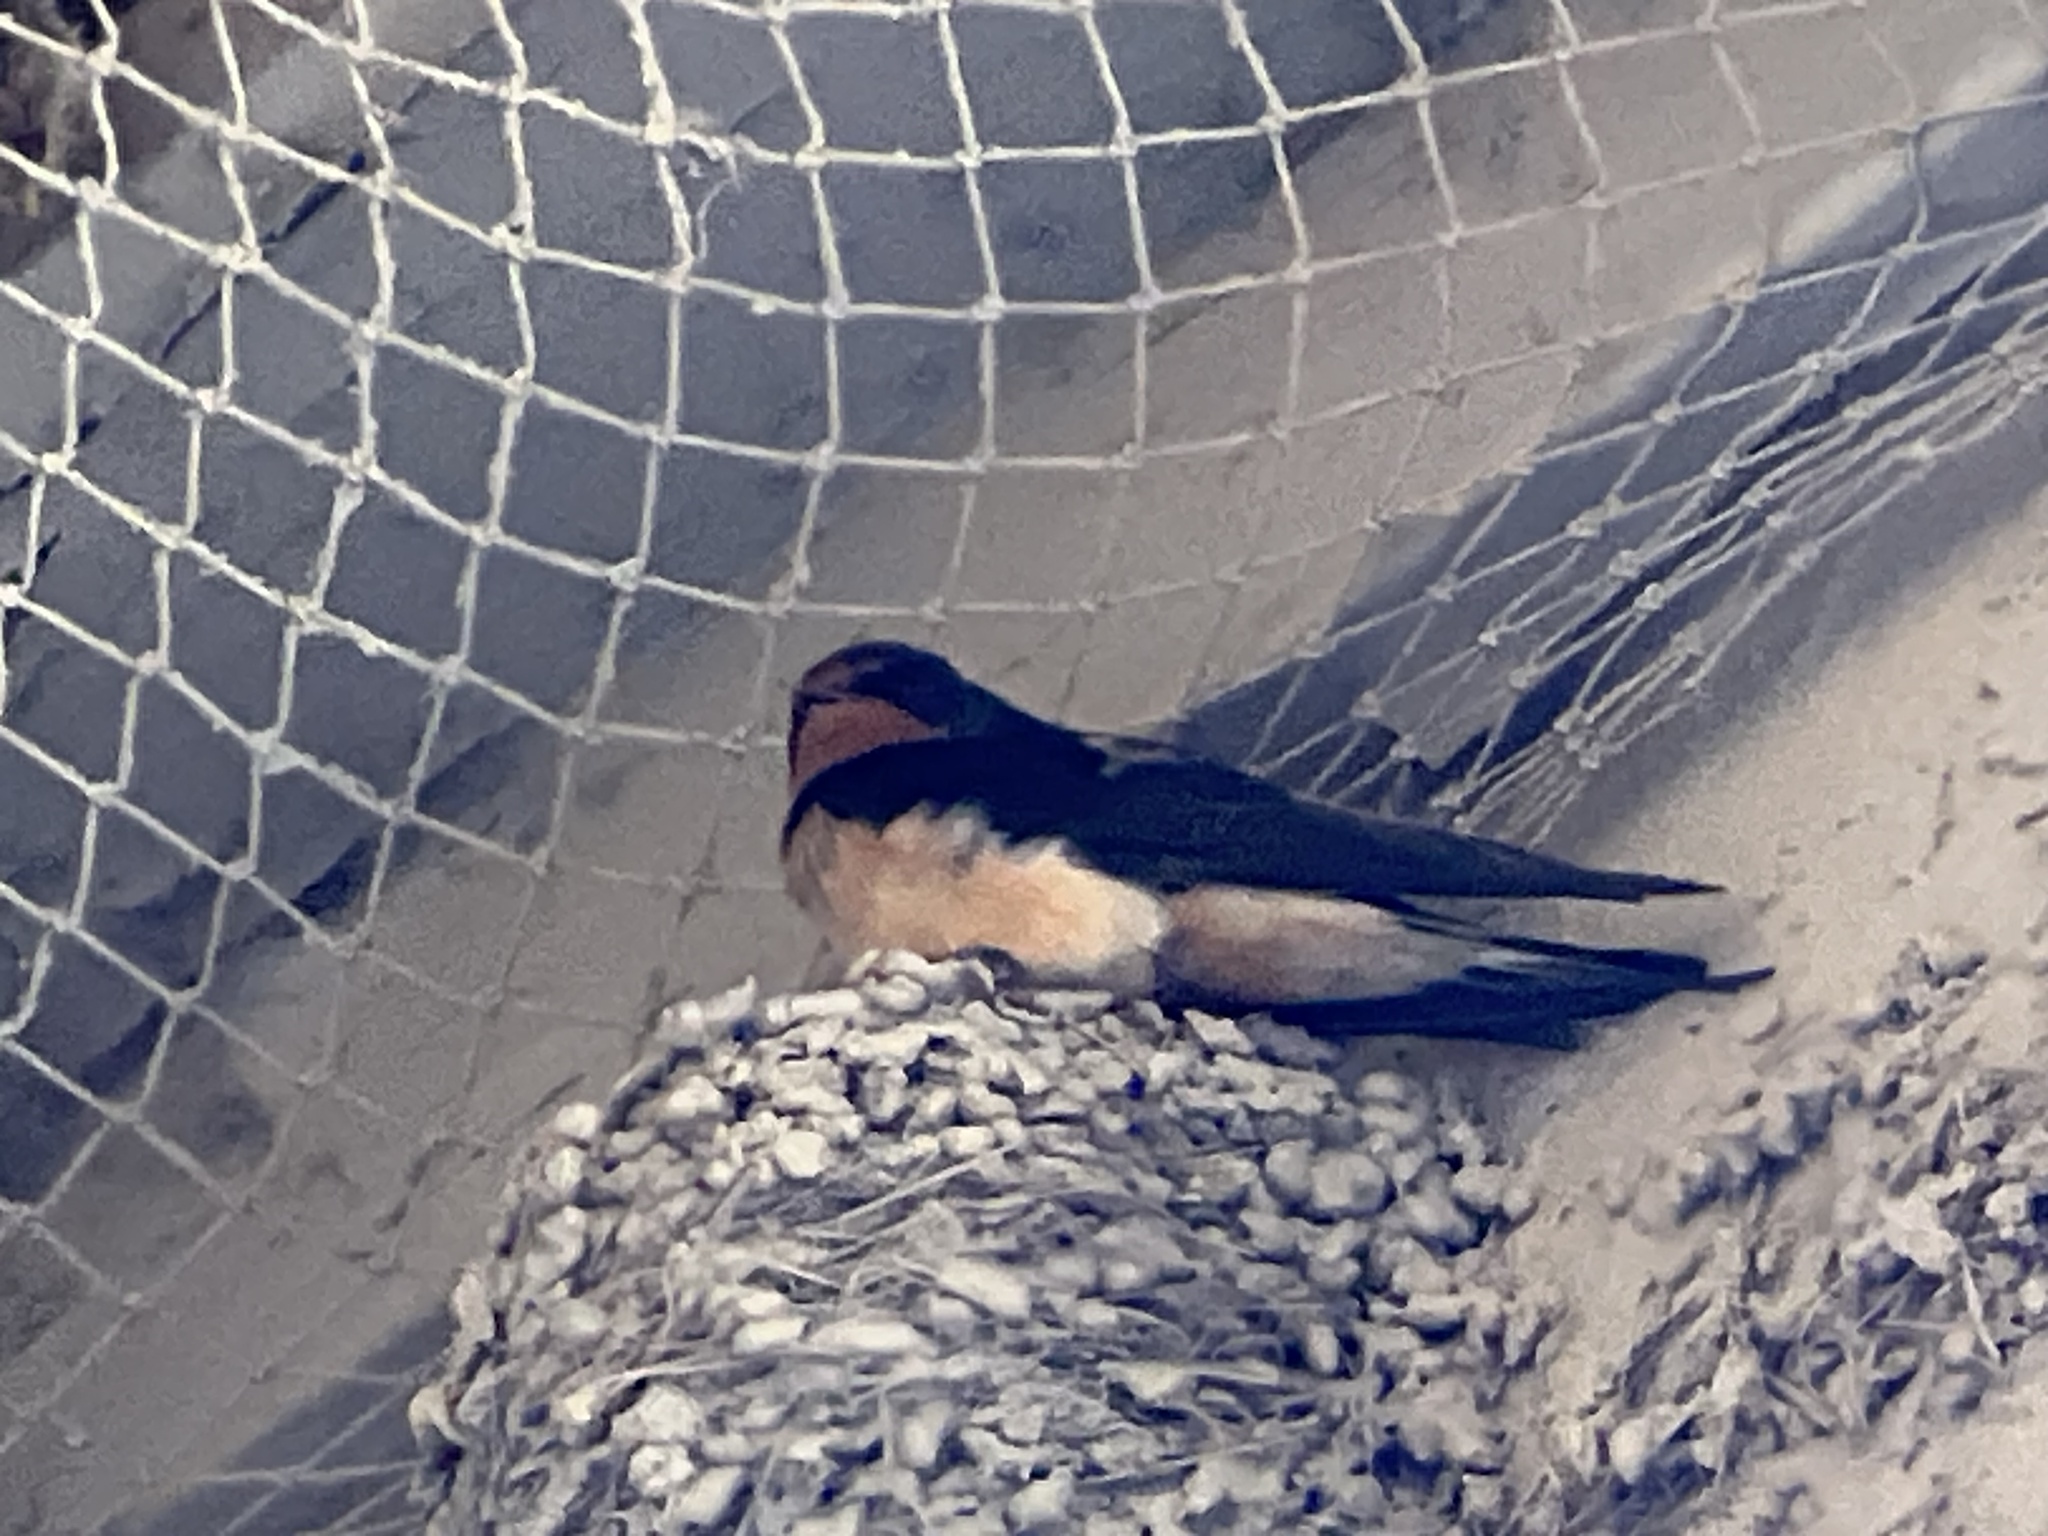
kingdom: Animalia
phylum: Chordata
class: Aves
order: Passeriformes
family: Hirundinidae
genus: Hirundo
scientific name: Hirundo rustica
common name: Barn swallow
